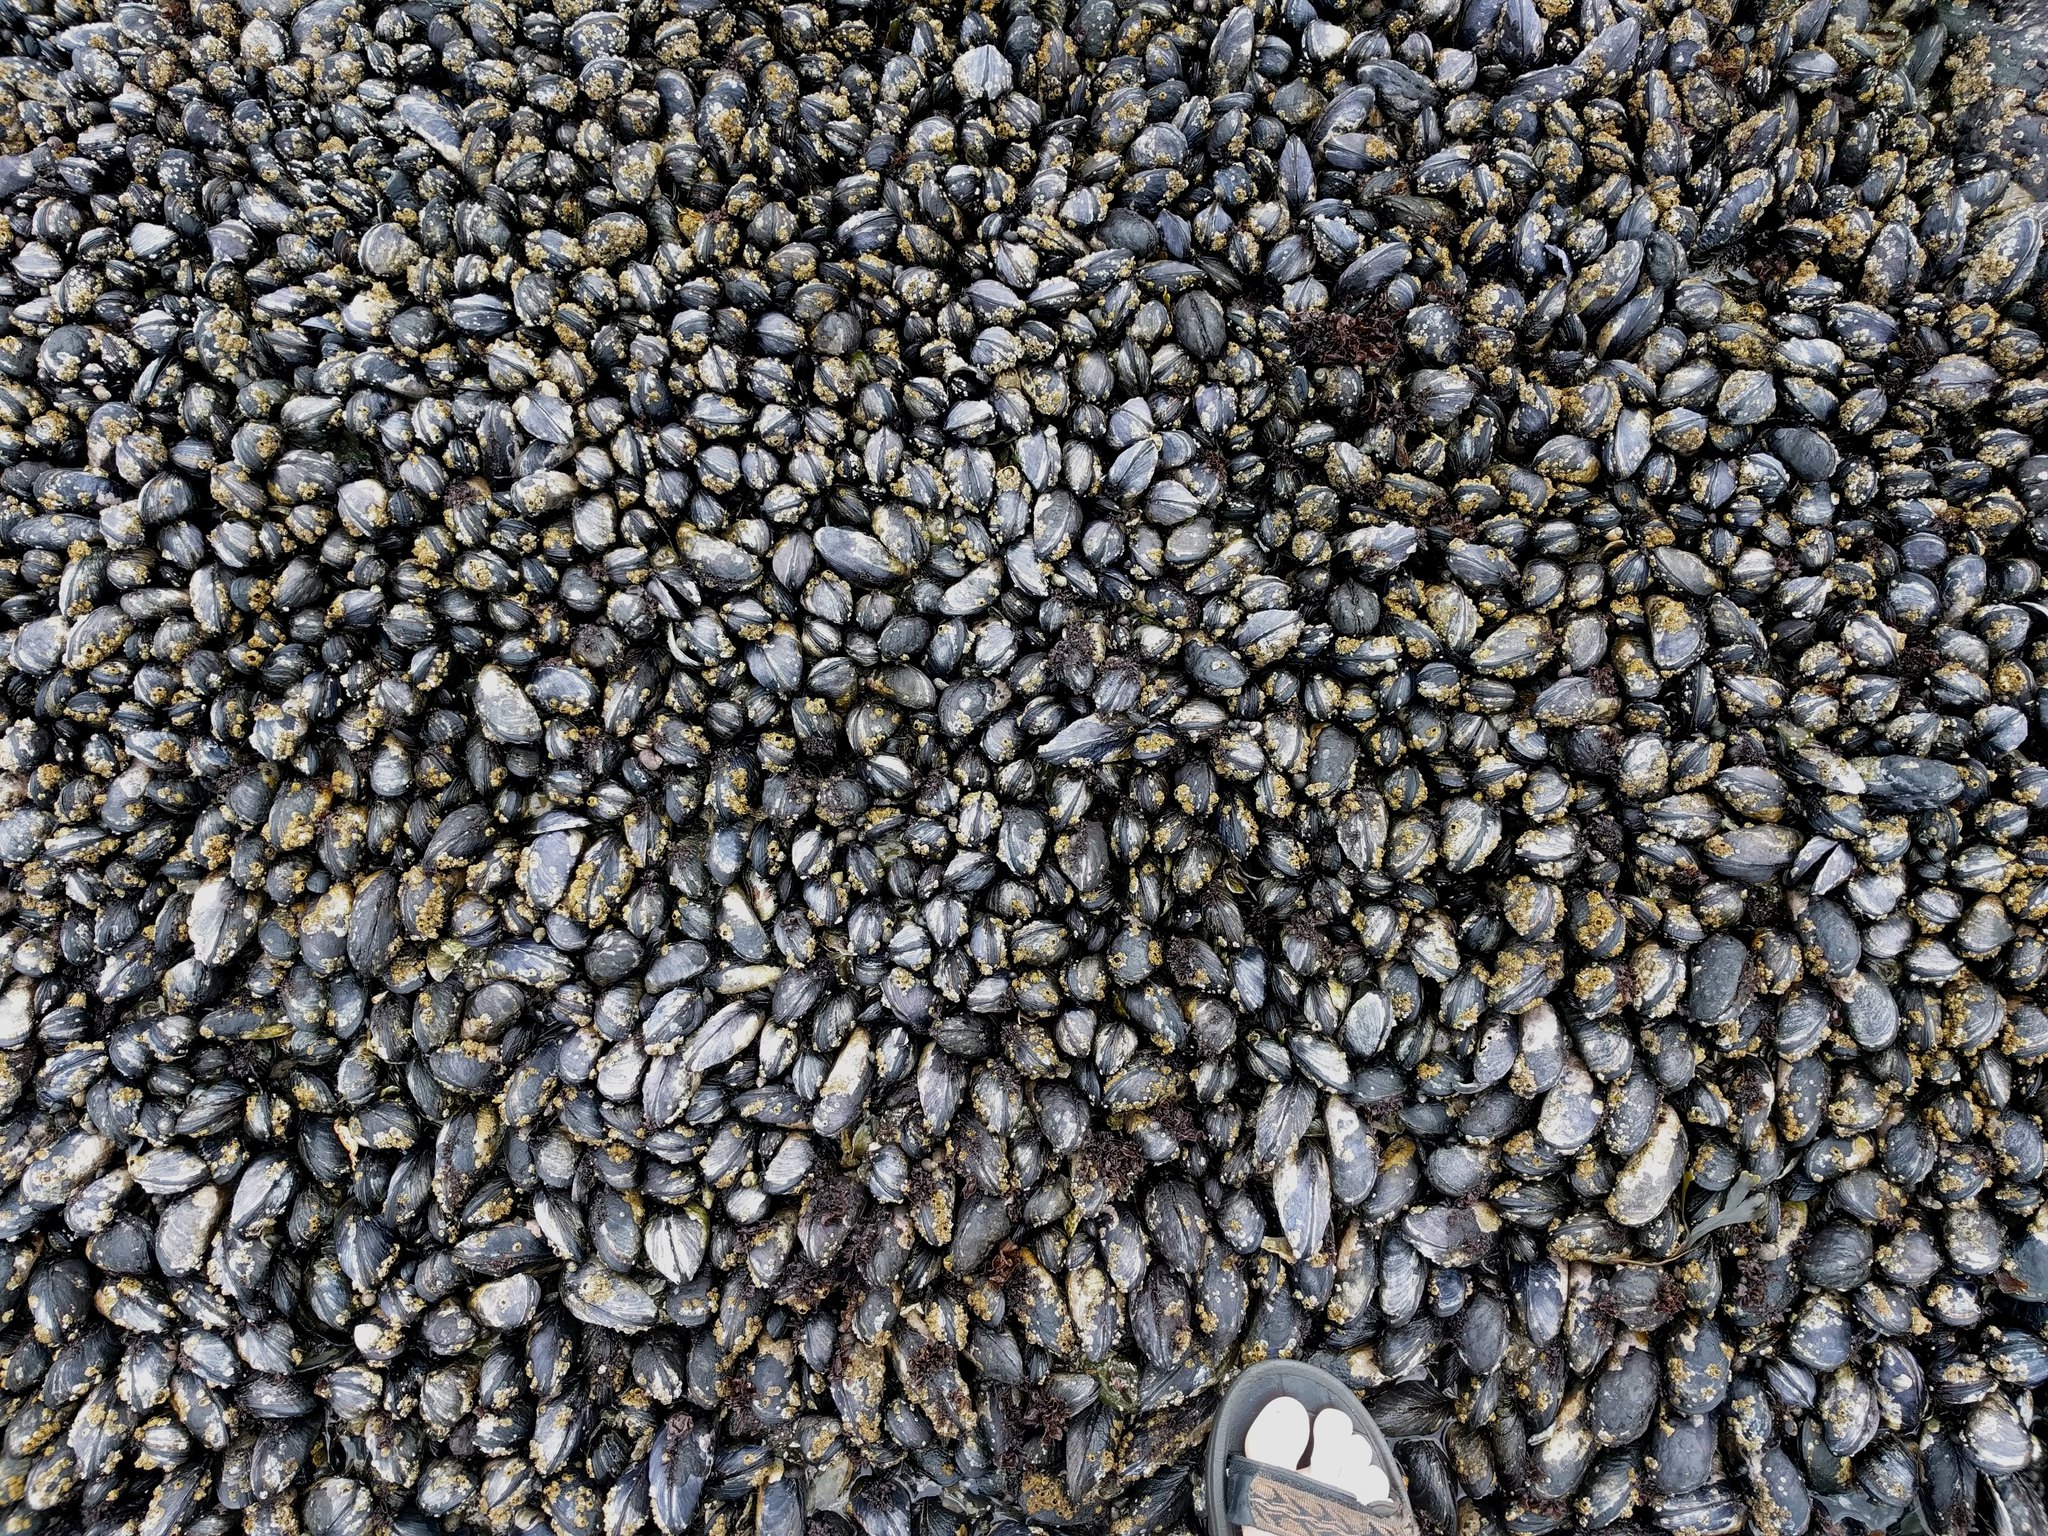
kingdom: Animalia
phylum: Mollusca
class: Bivalvia
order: Mytilida
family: Mytilidae
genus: Mytilus
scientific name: Mytilus californianus
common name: California mussel
